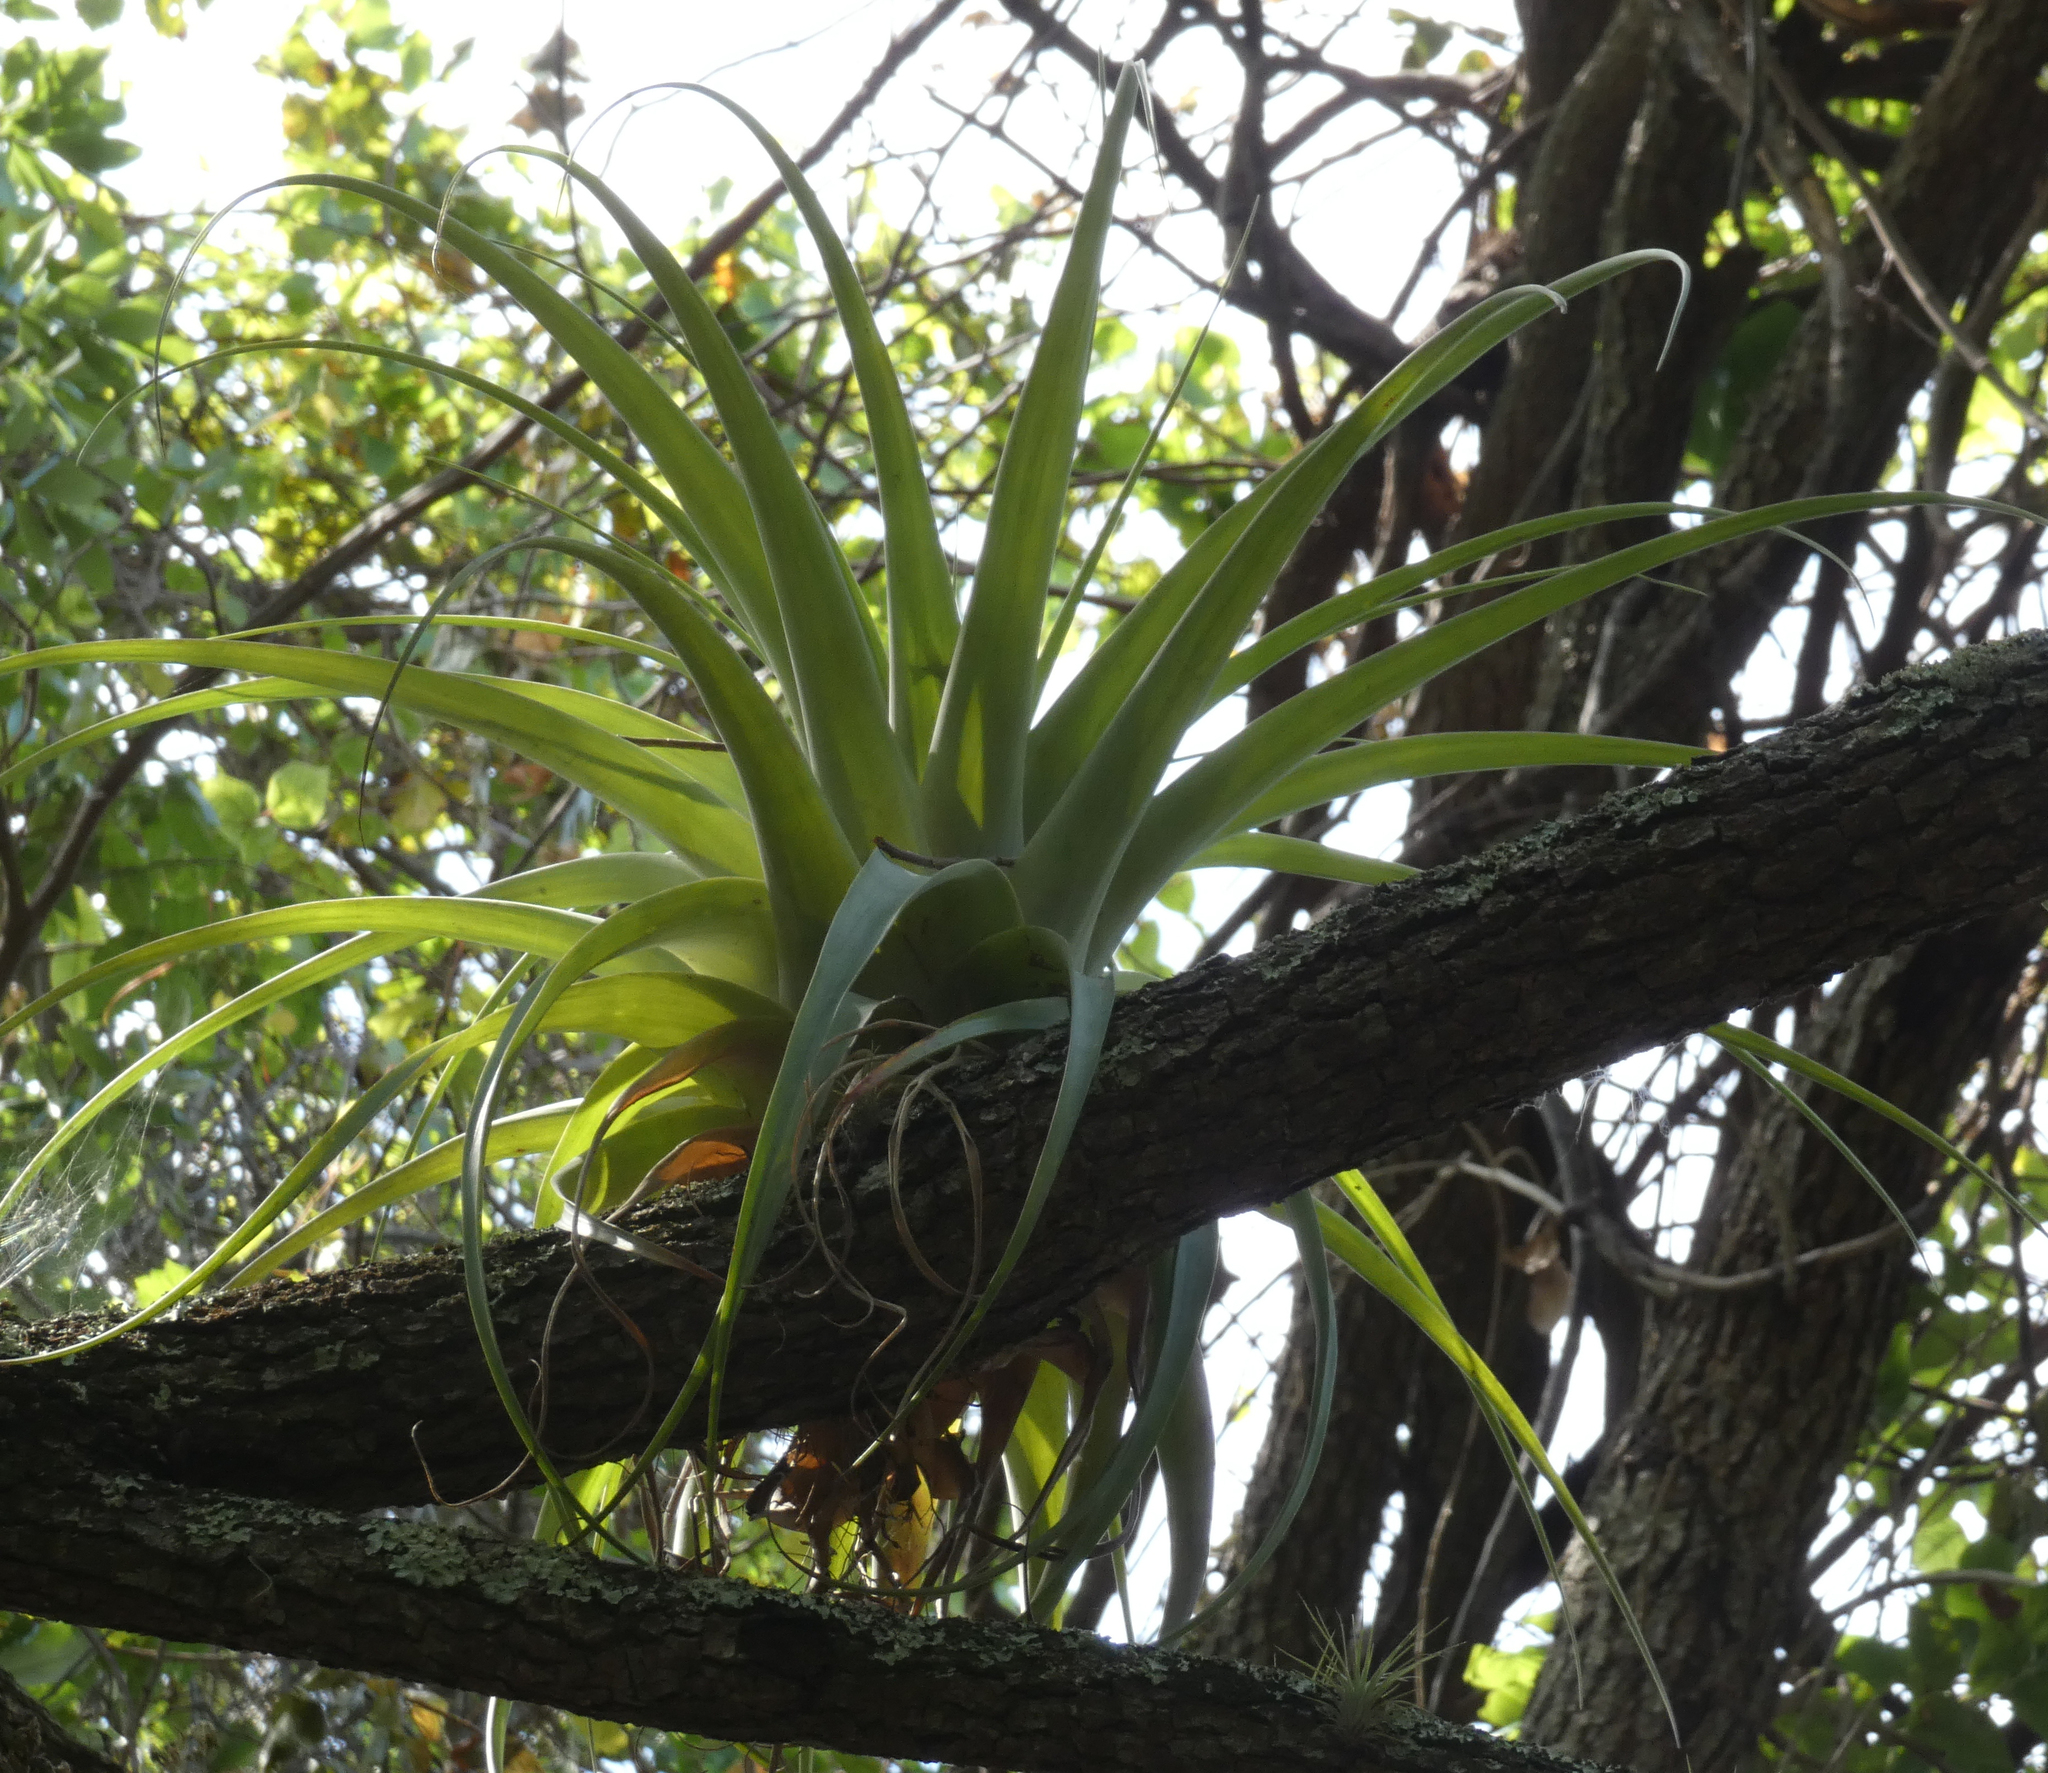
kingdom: Plantae
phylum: Tracheophyta
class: Liliopsida
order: Poales
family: Bromeliaceae
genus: Tillandsia
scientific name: Tillandsia utriculata
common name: Wild pine
